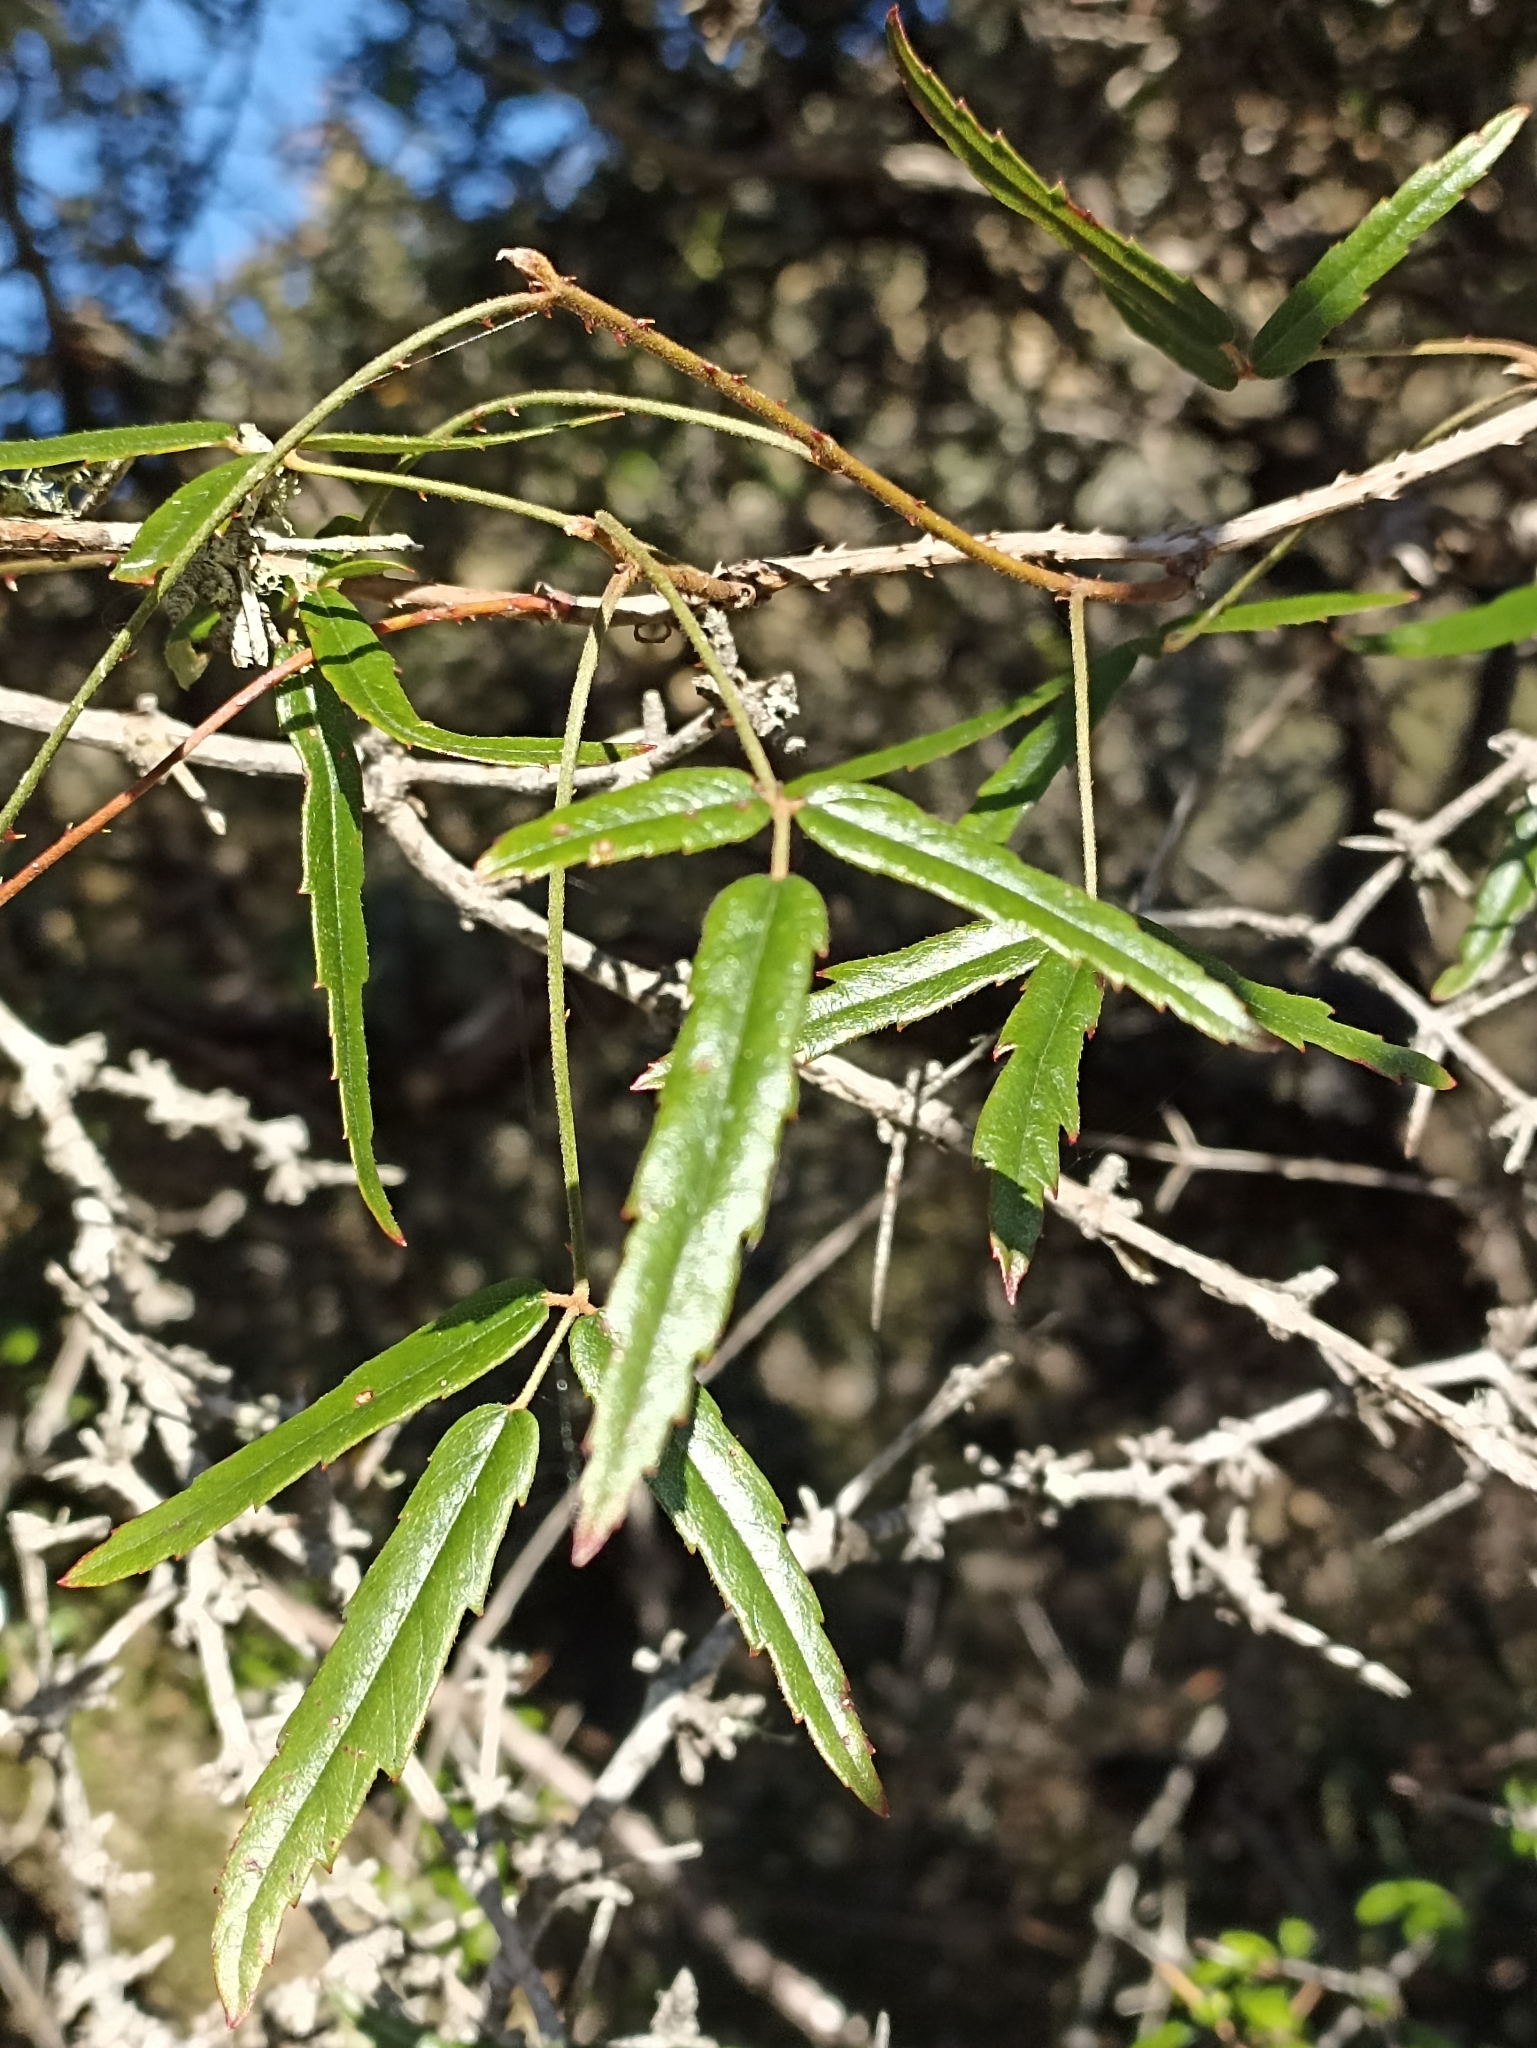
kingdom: Plantae
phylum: Tracheophyta
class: Magnoliopsida
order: Rosales
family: Rosaceae
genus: Rubus
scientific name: Rubus schmidelioides
